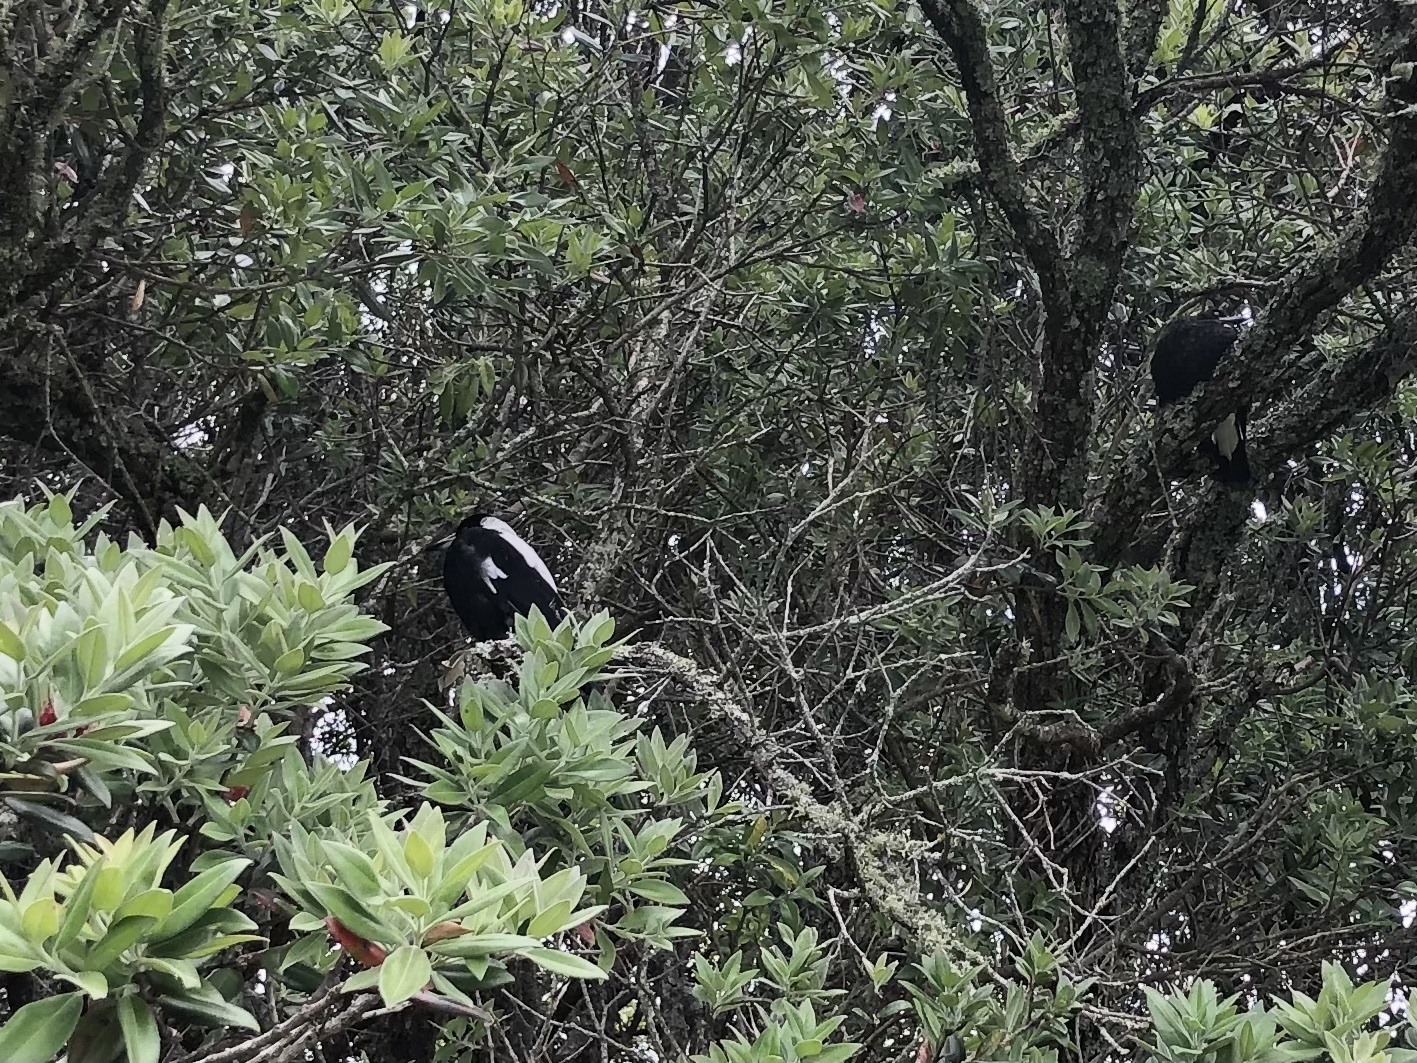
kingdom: Animalia
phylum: Chordata
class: Aves
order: Passeriformes
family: Cracticidae
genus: Gymnorhina
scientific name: Gymnorhina tibicen
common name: Australian magpie
